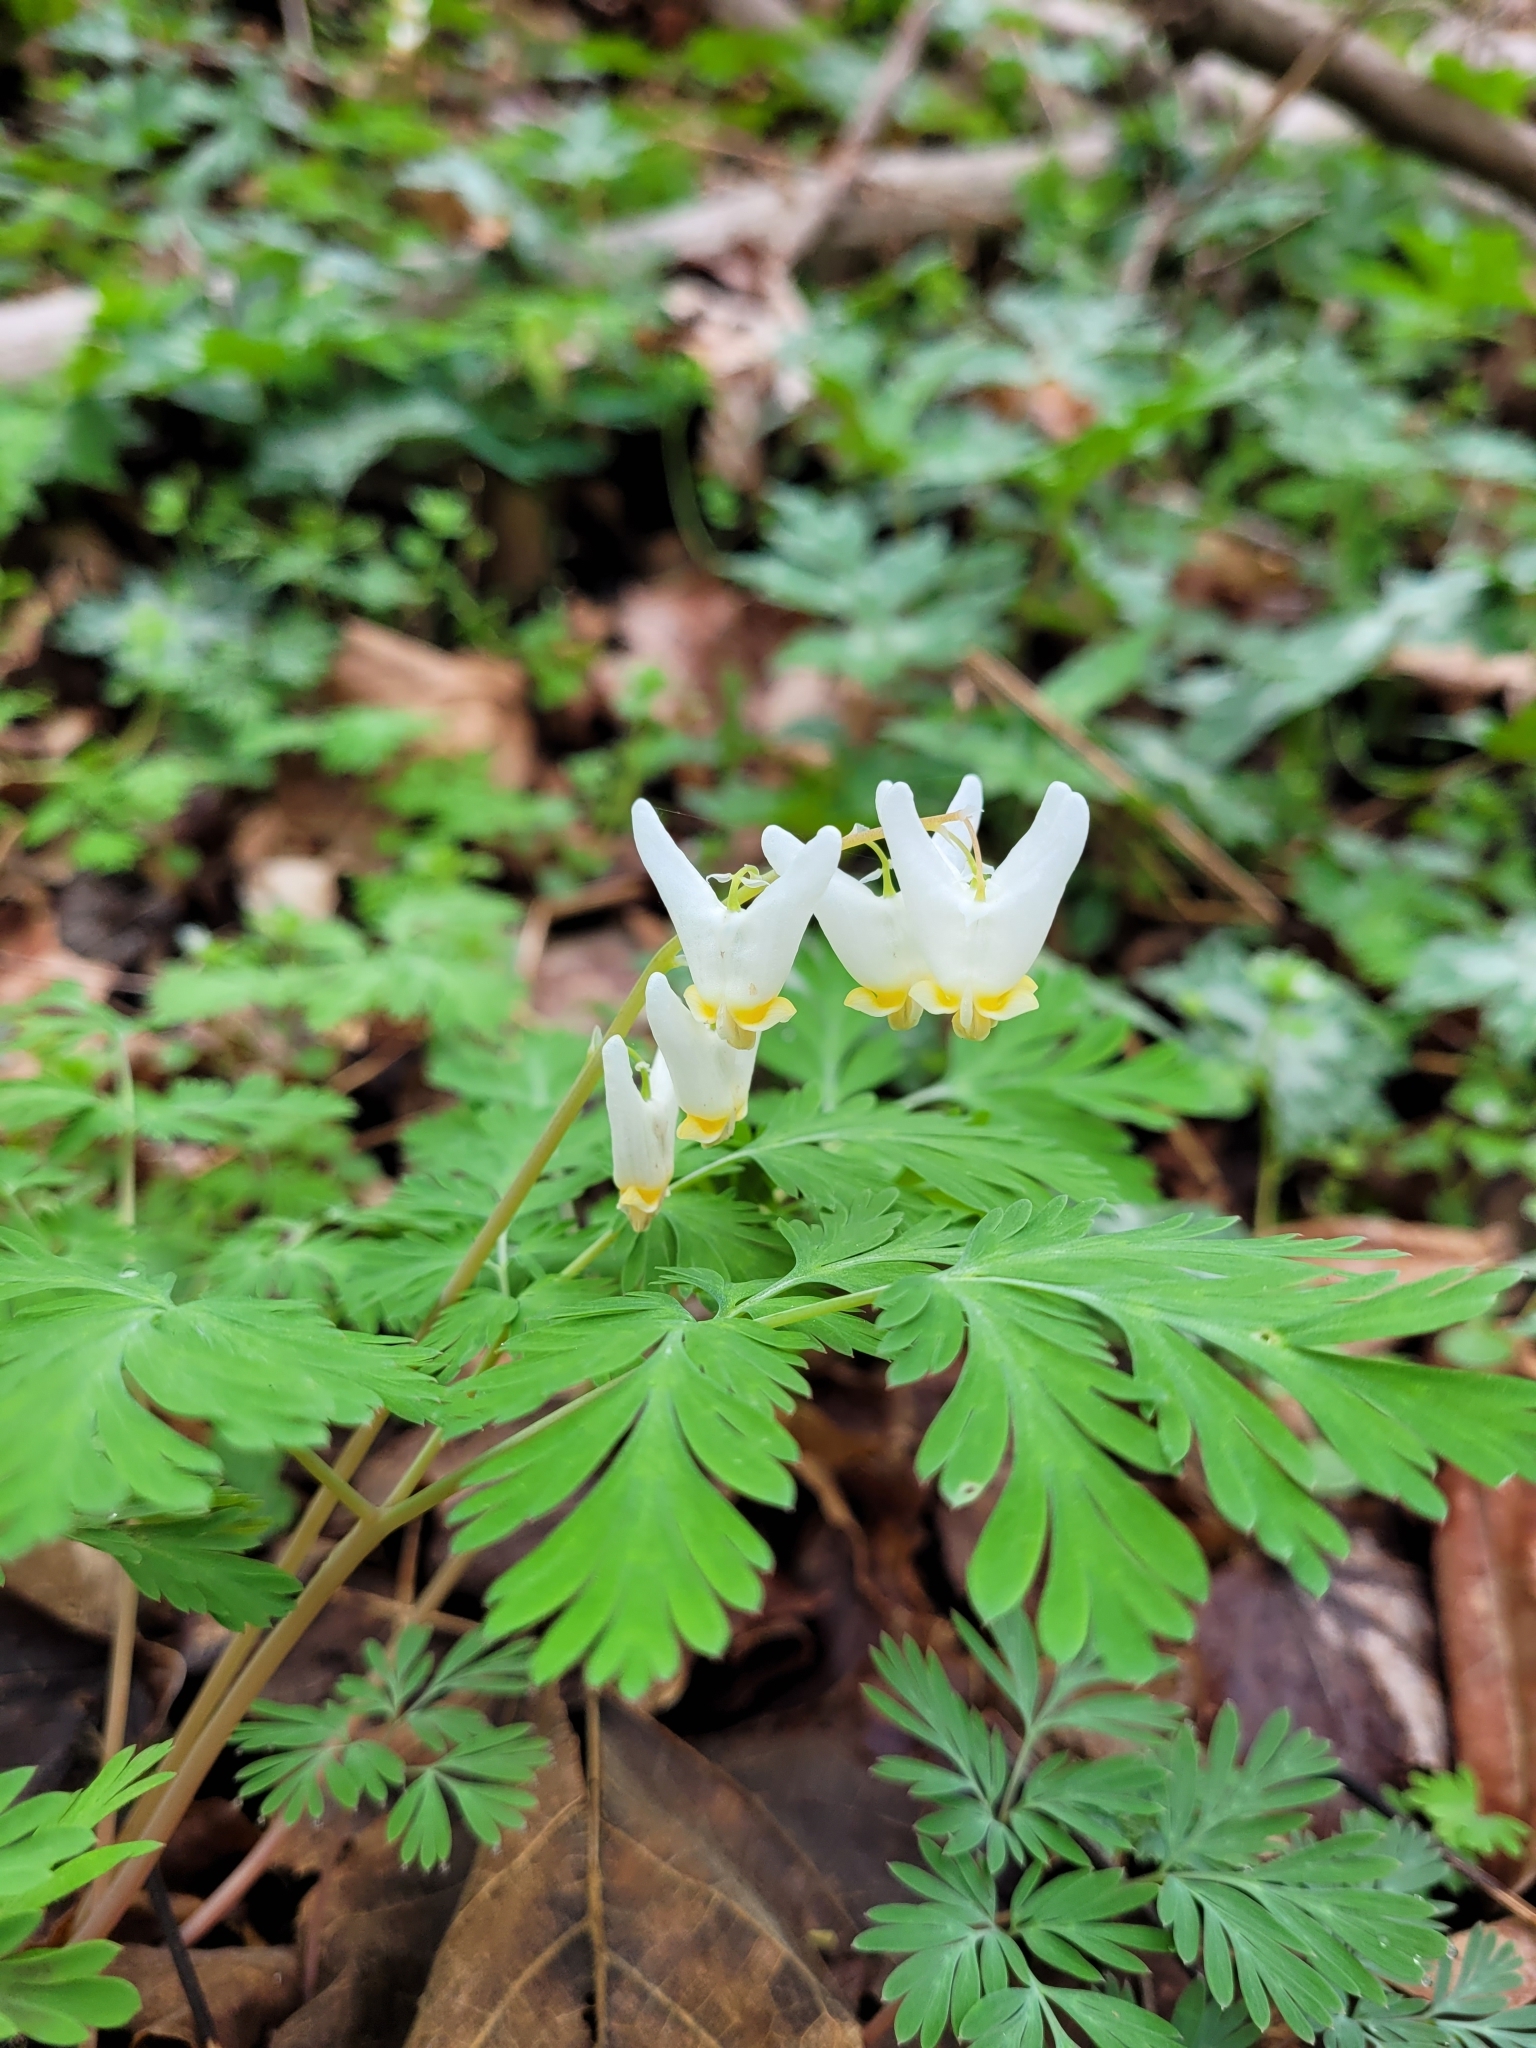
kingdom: Plantae
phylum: Tracheophyta
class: Magnoliopsida
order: Ranunculales
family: Papaveraceae
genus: Dicentra
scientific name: Dicentra cucullaria
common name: Dutchman's breeches
